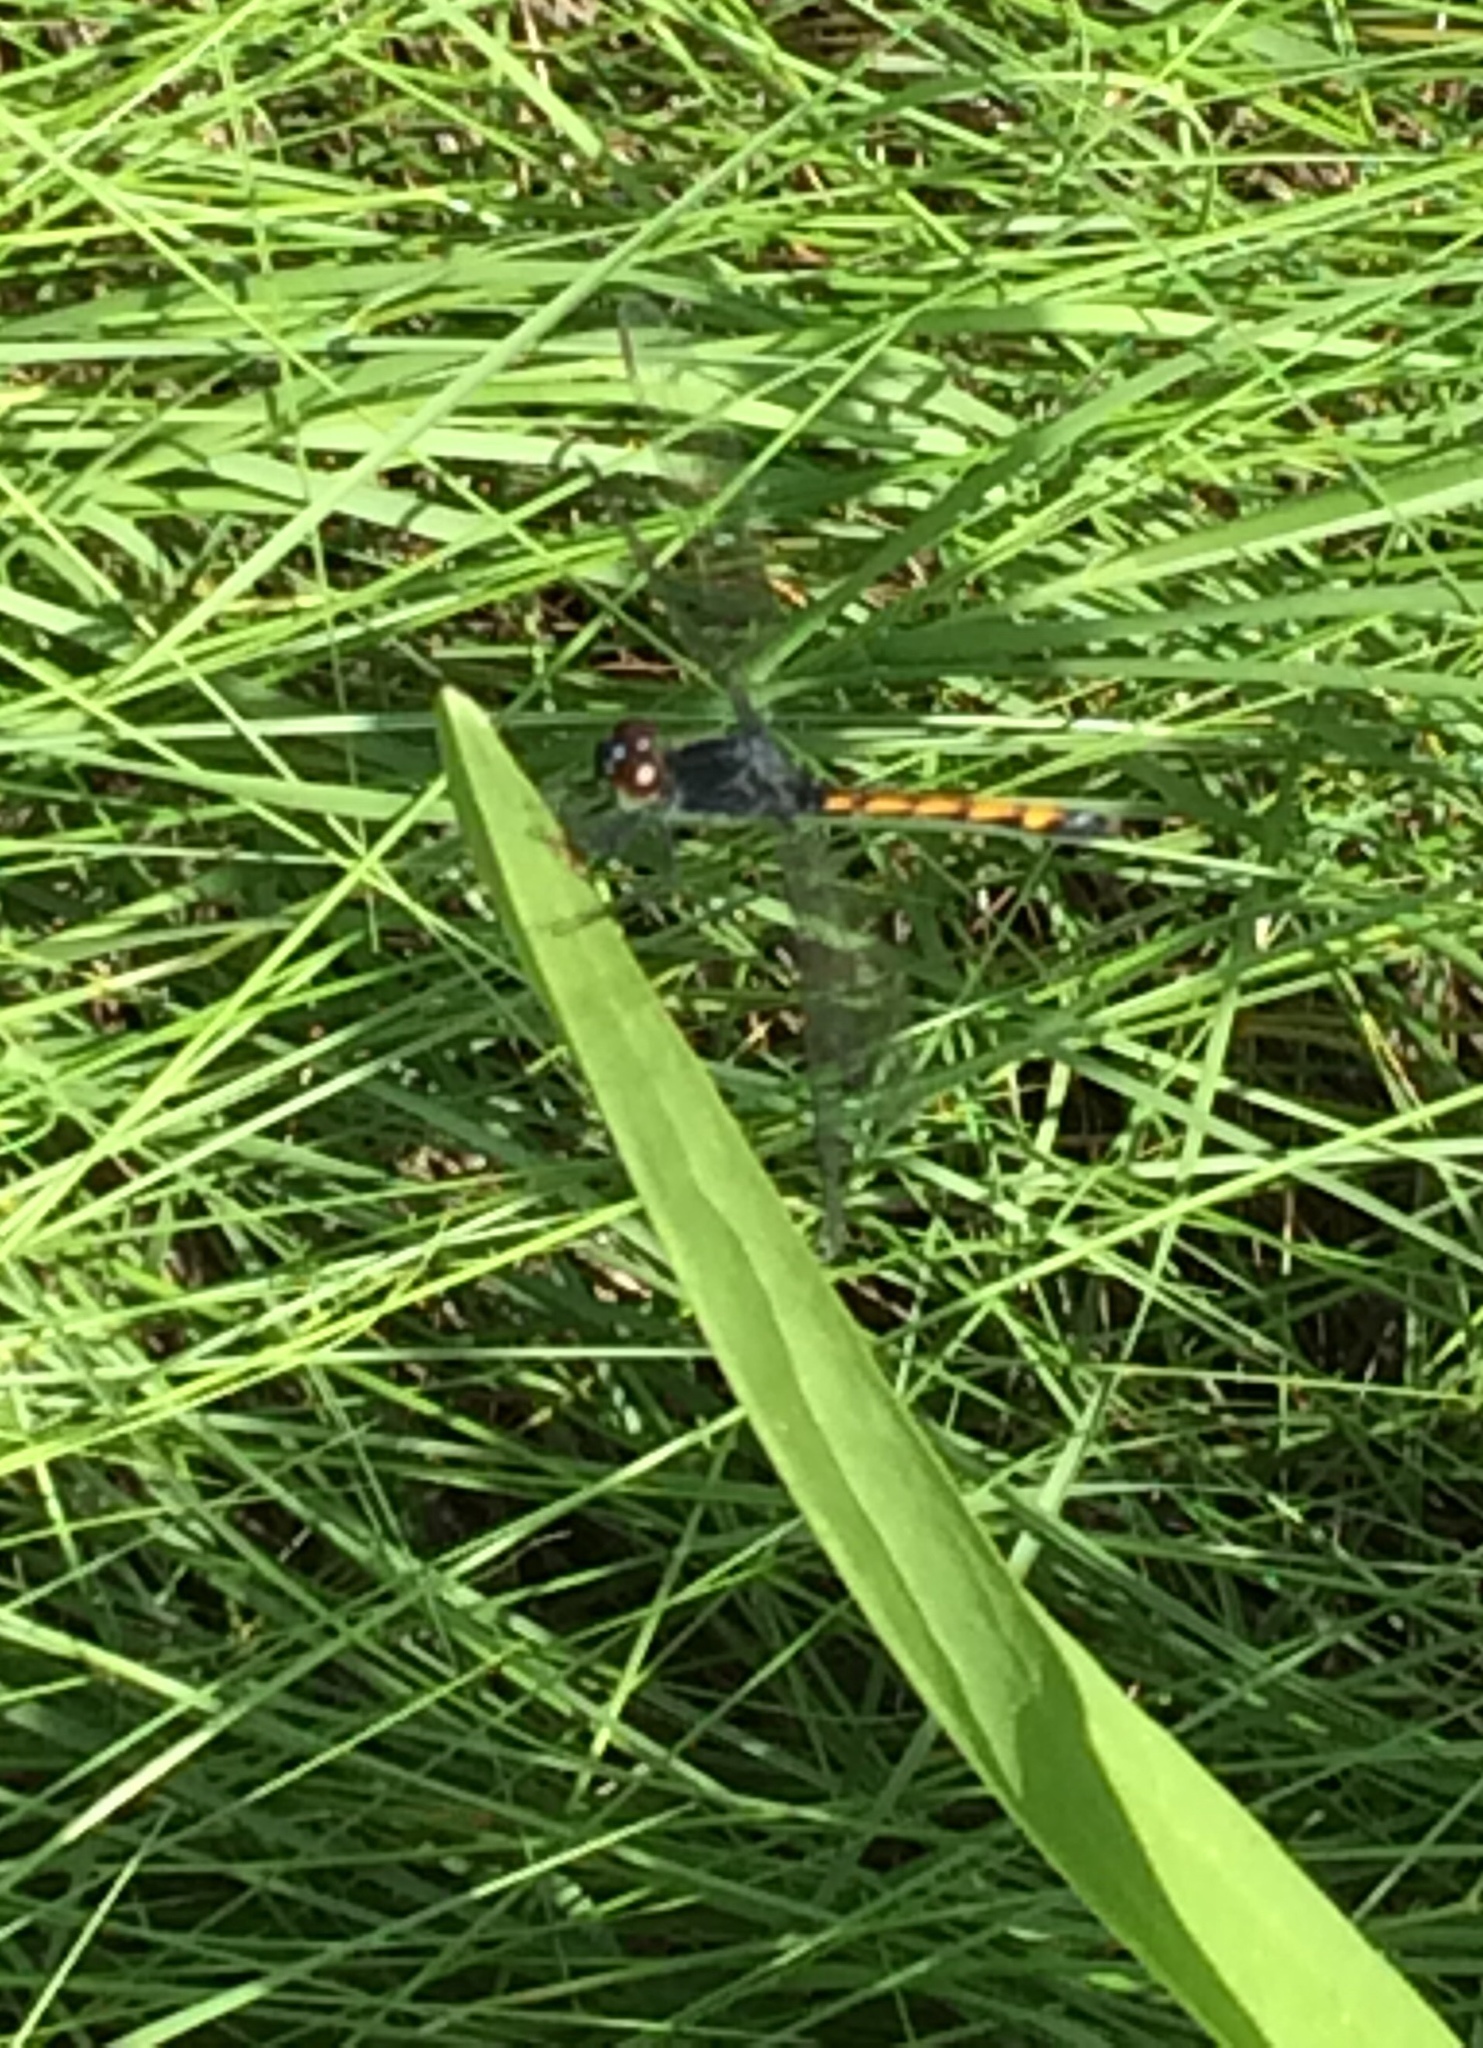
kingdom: Animalia
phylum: Arthropoda
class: Insecta
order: Odonata
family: Libellulidae
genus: Erythrodiplax
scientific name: Erythrodiplax berenice
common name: Seaside dragonlet
